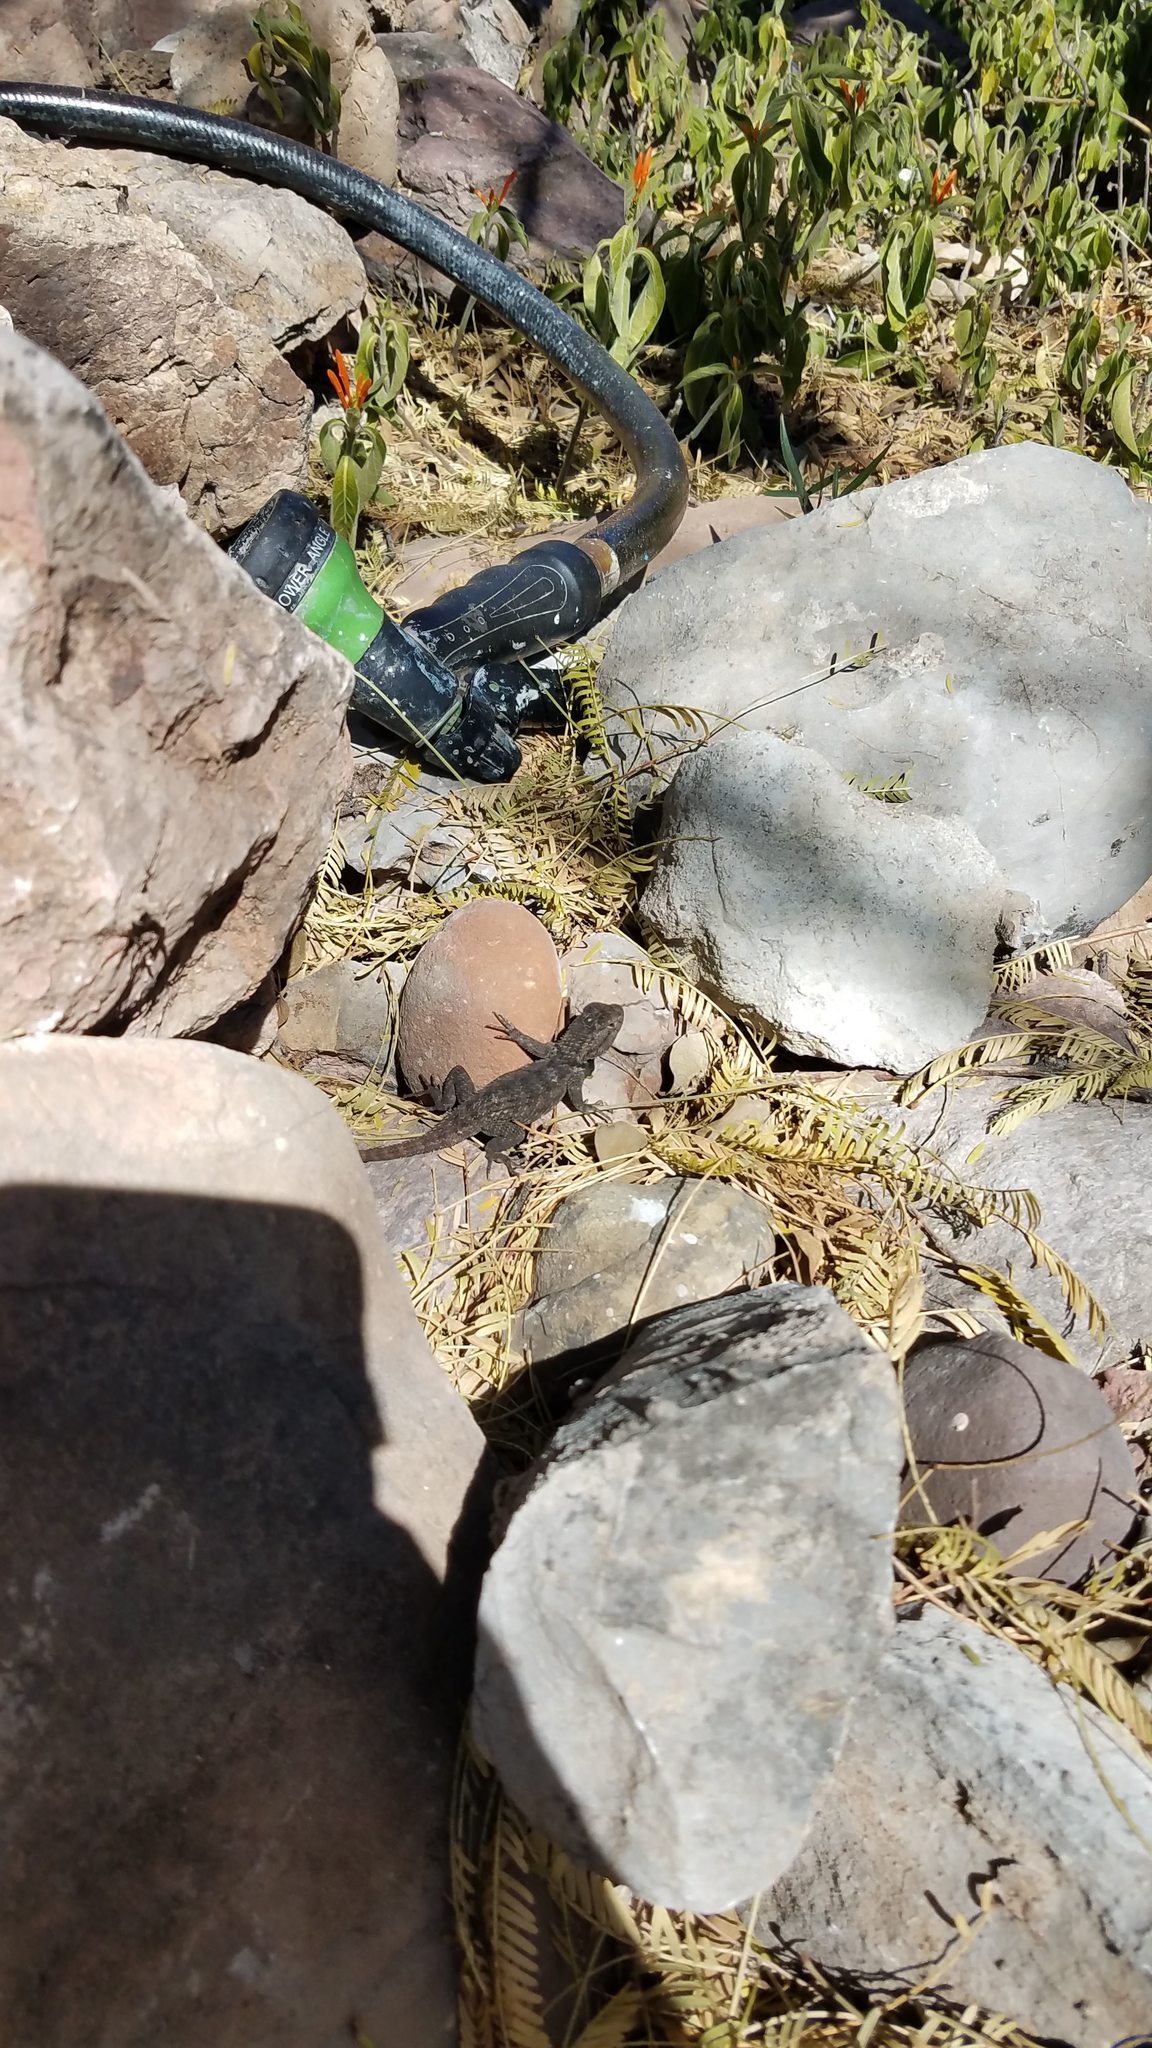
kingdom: Animalia
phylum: Chordata
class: Squamata
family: Phrynosomatidae
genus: Sceloporus
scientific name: Sceloporus magister
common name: Desert spiny lizard
